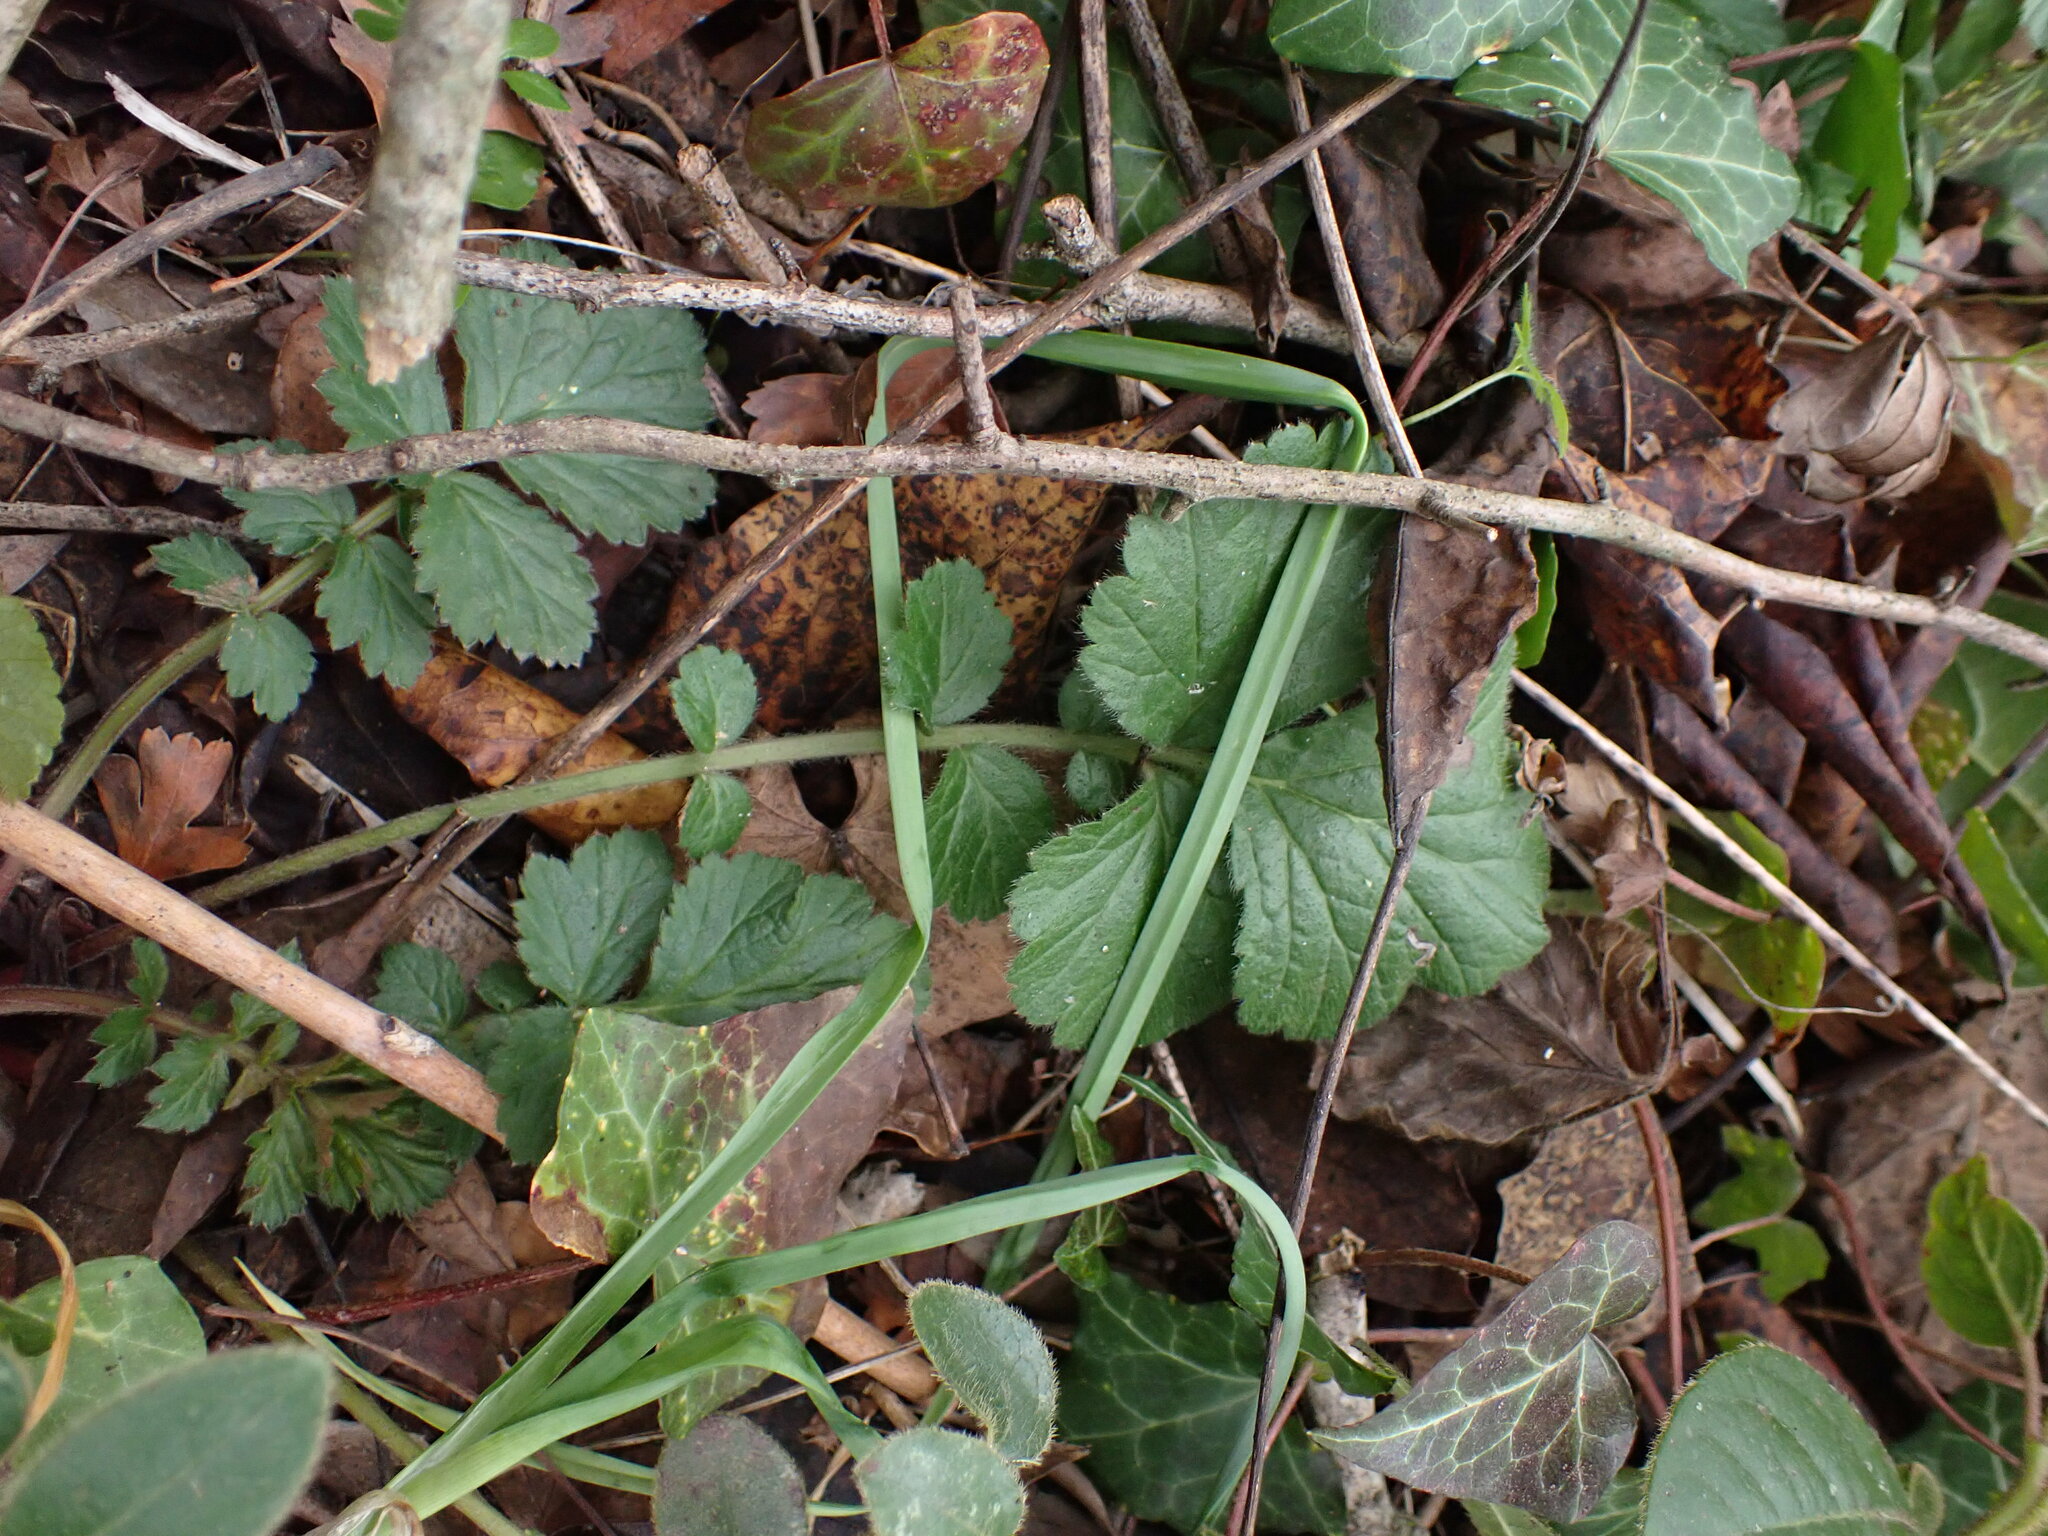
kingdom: Plantae
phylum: Tracheophyta
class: Magnoliopsida
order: Rosales
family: Rosaceae
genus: Geum
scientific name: Geum urbanum
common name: Wood avens
